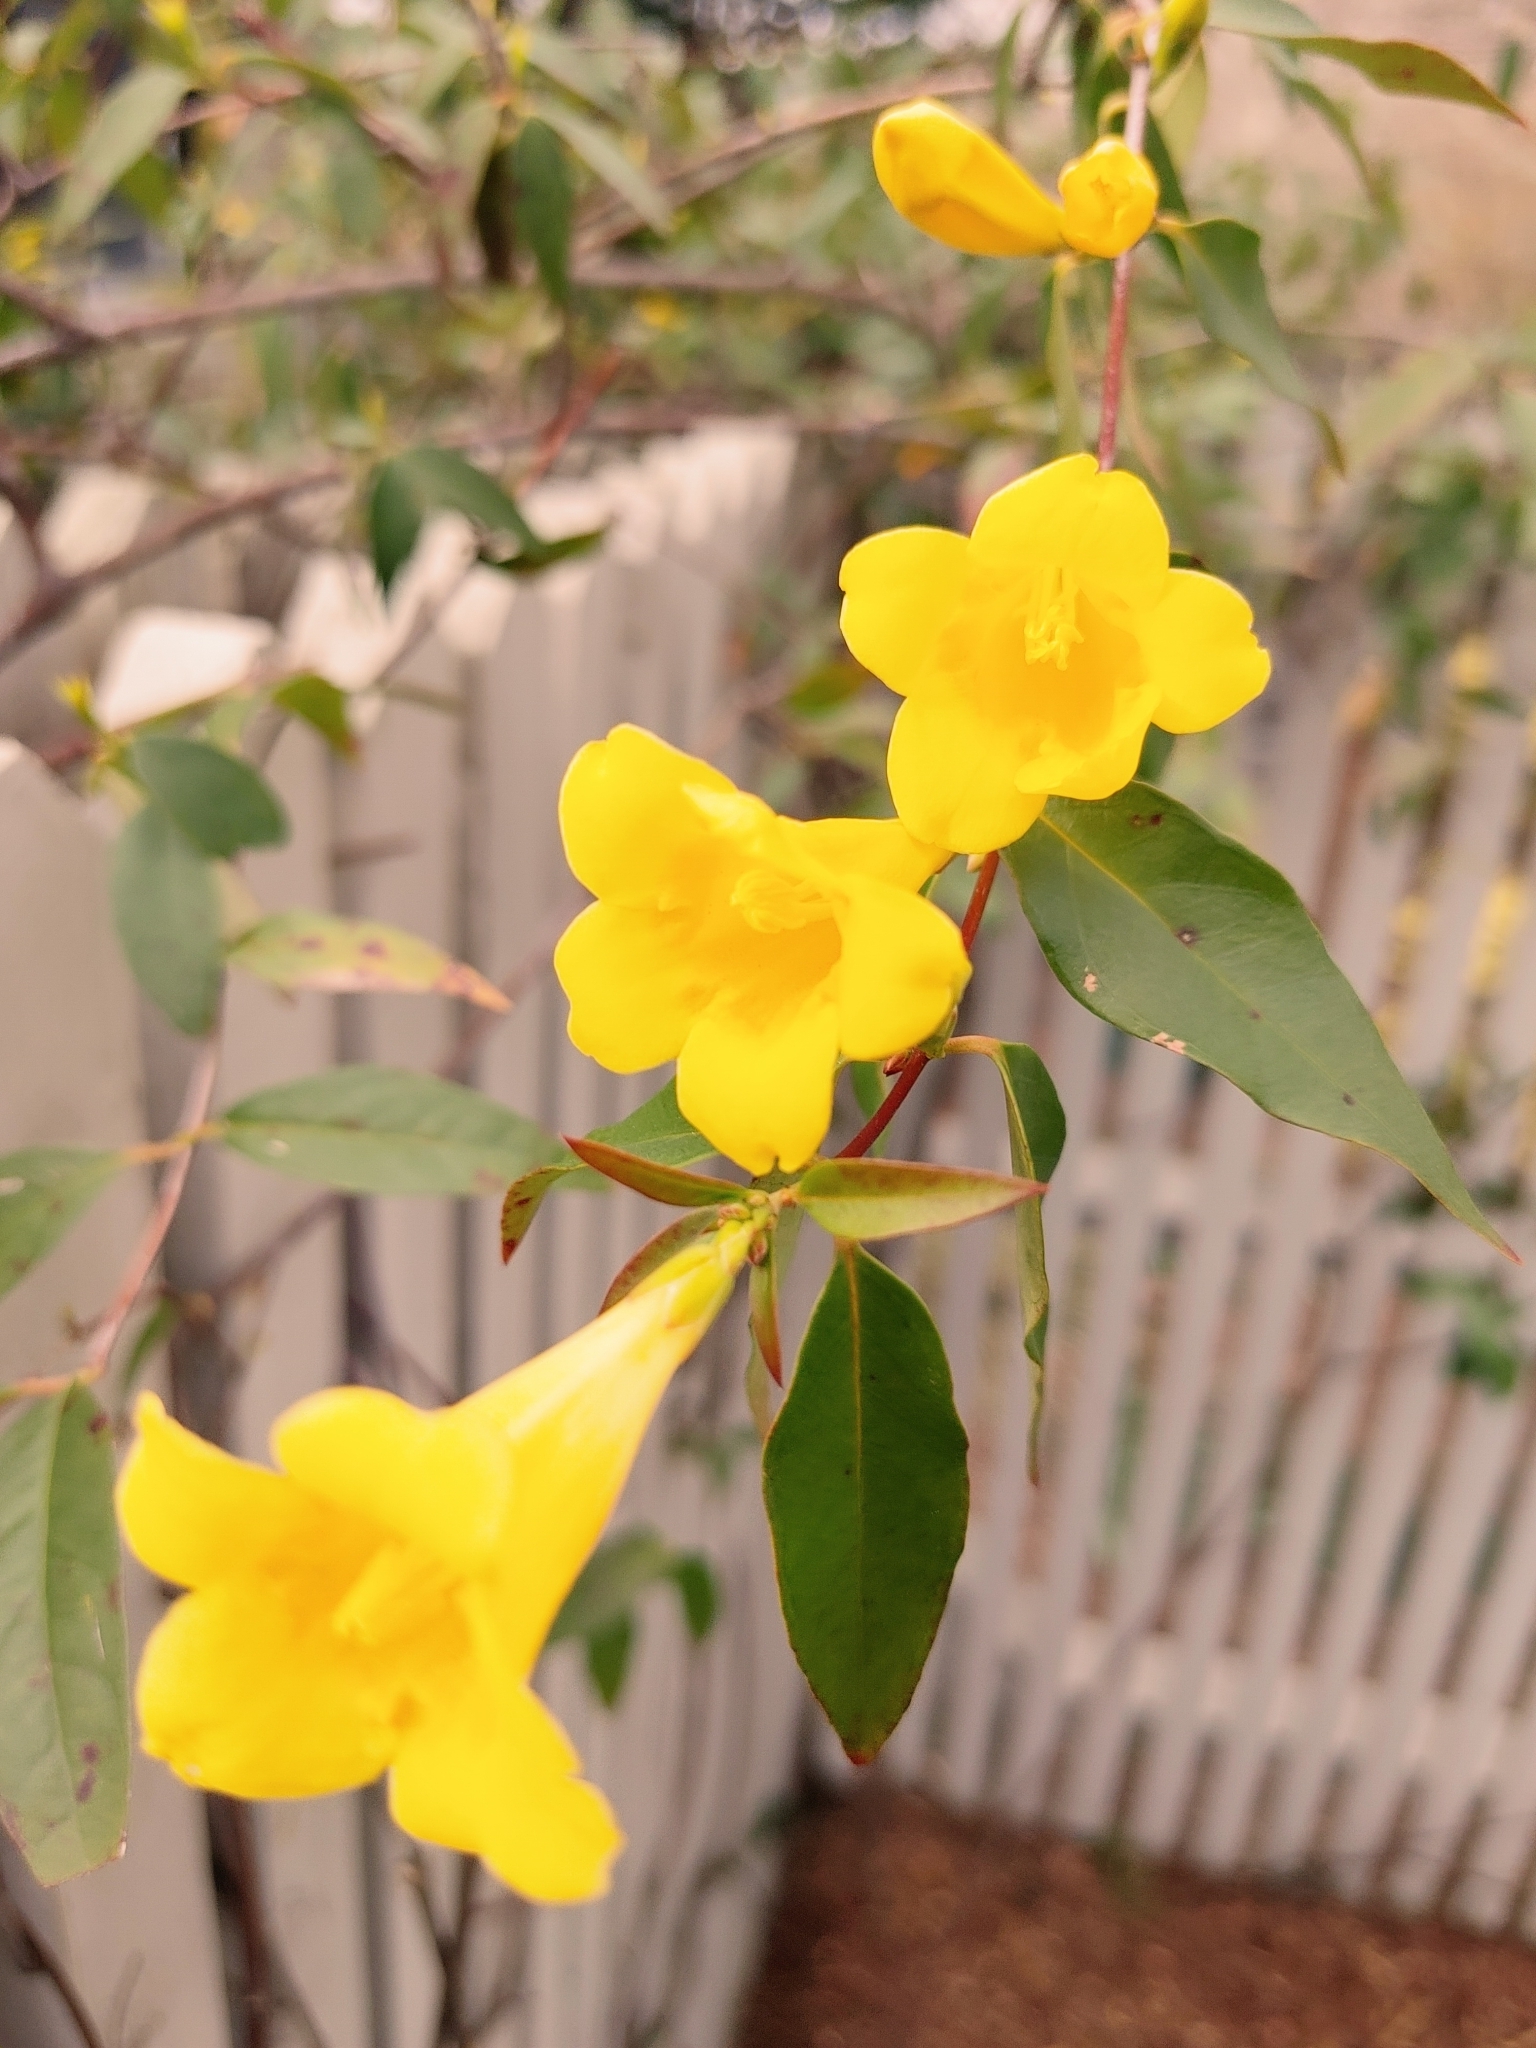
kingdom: Plantae
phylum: Tracheophyta
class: Magnoliopsida
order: Gentianales
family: Gelsemiaceae
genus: Gelsemium
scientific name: Gelsemium sempervirens
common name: Carolina-jasmine
